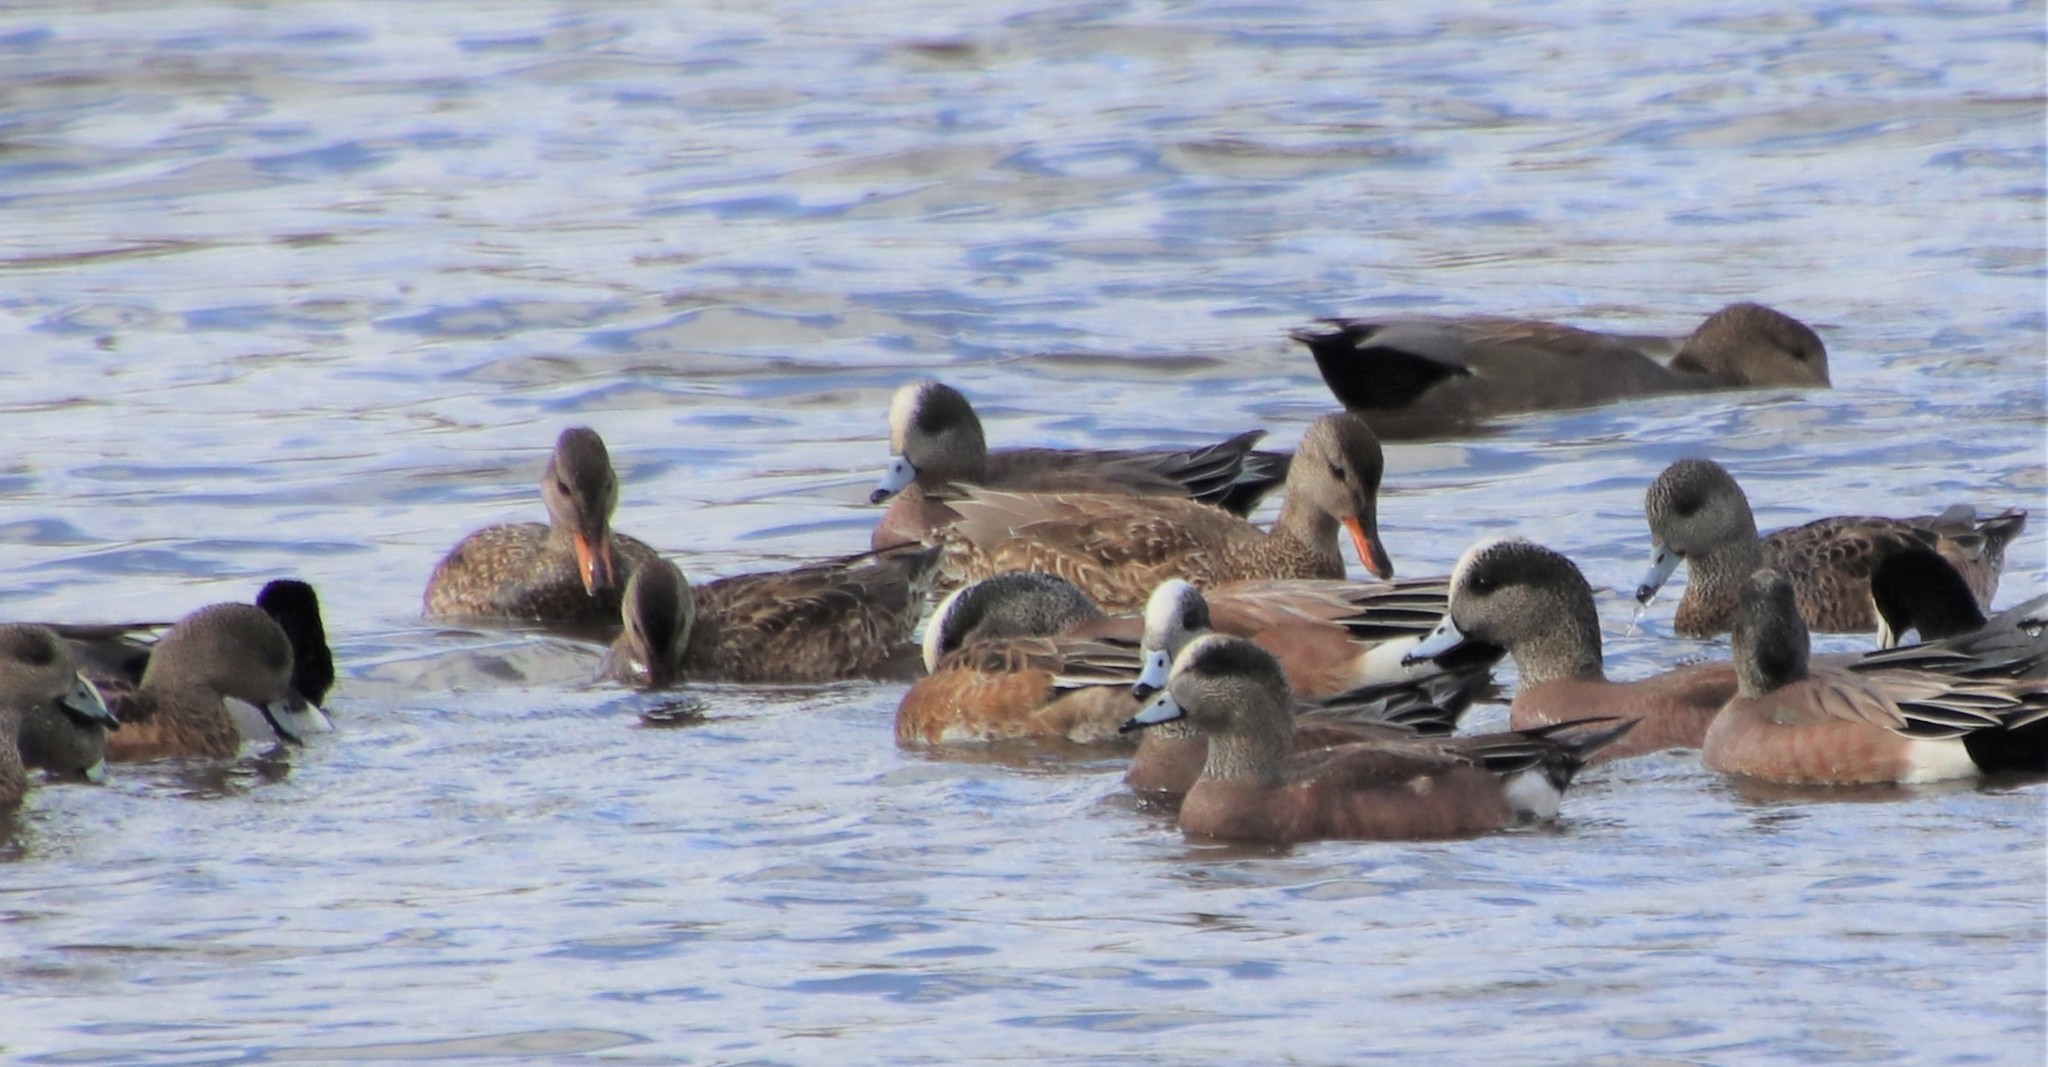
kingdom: Animalia
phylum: Chordata
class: Aves
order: Anseriformes
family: Anatidae
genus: Mareca
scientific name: Mareca americana
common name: American wigeon
